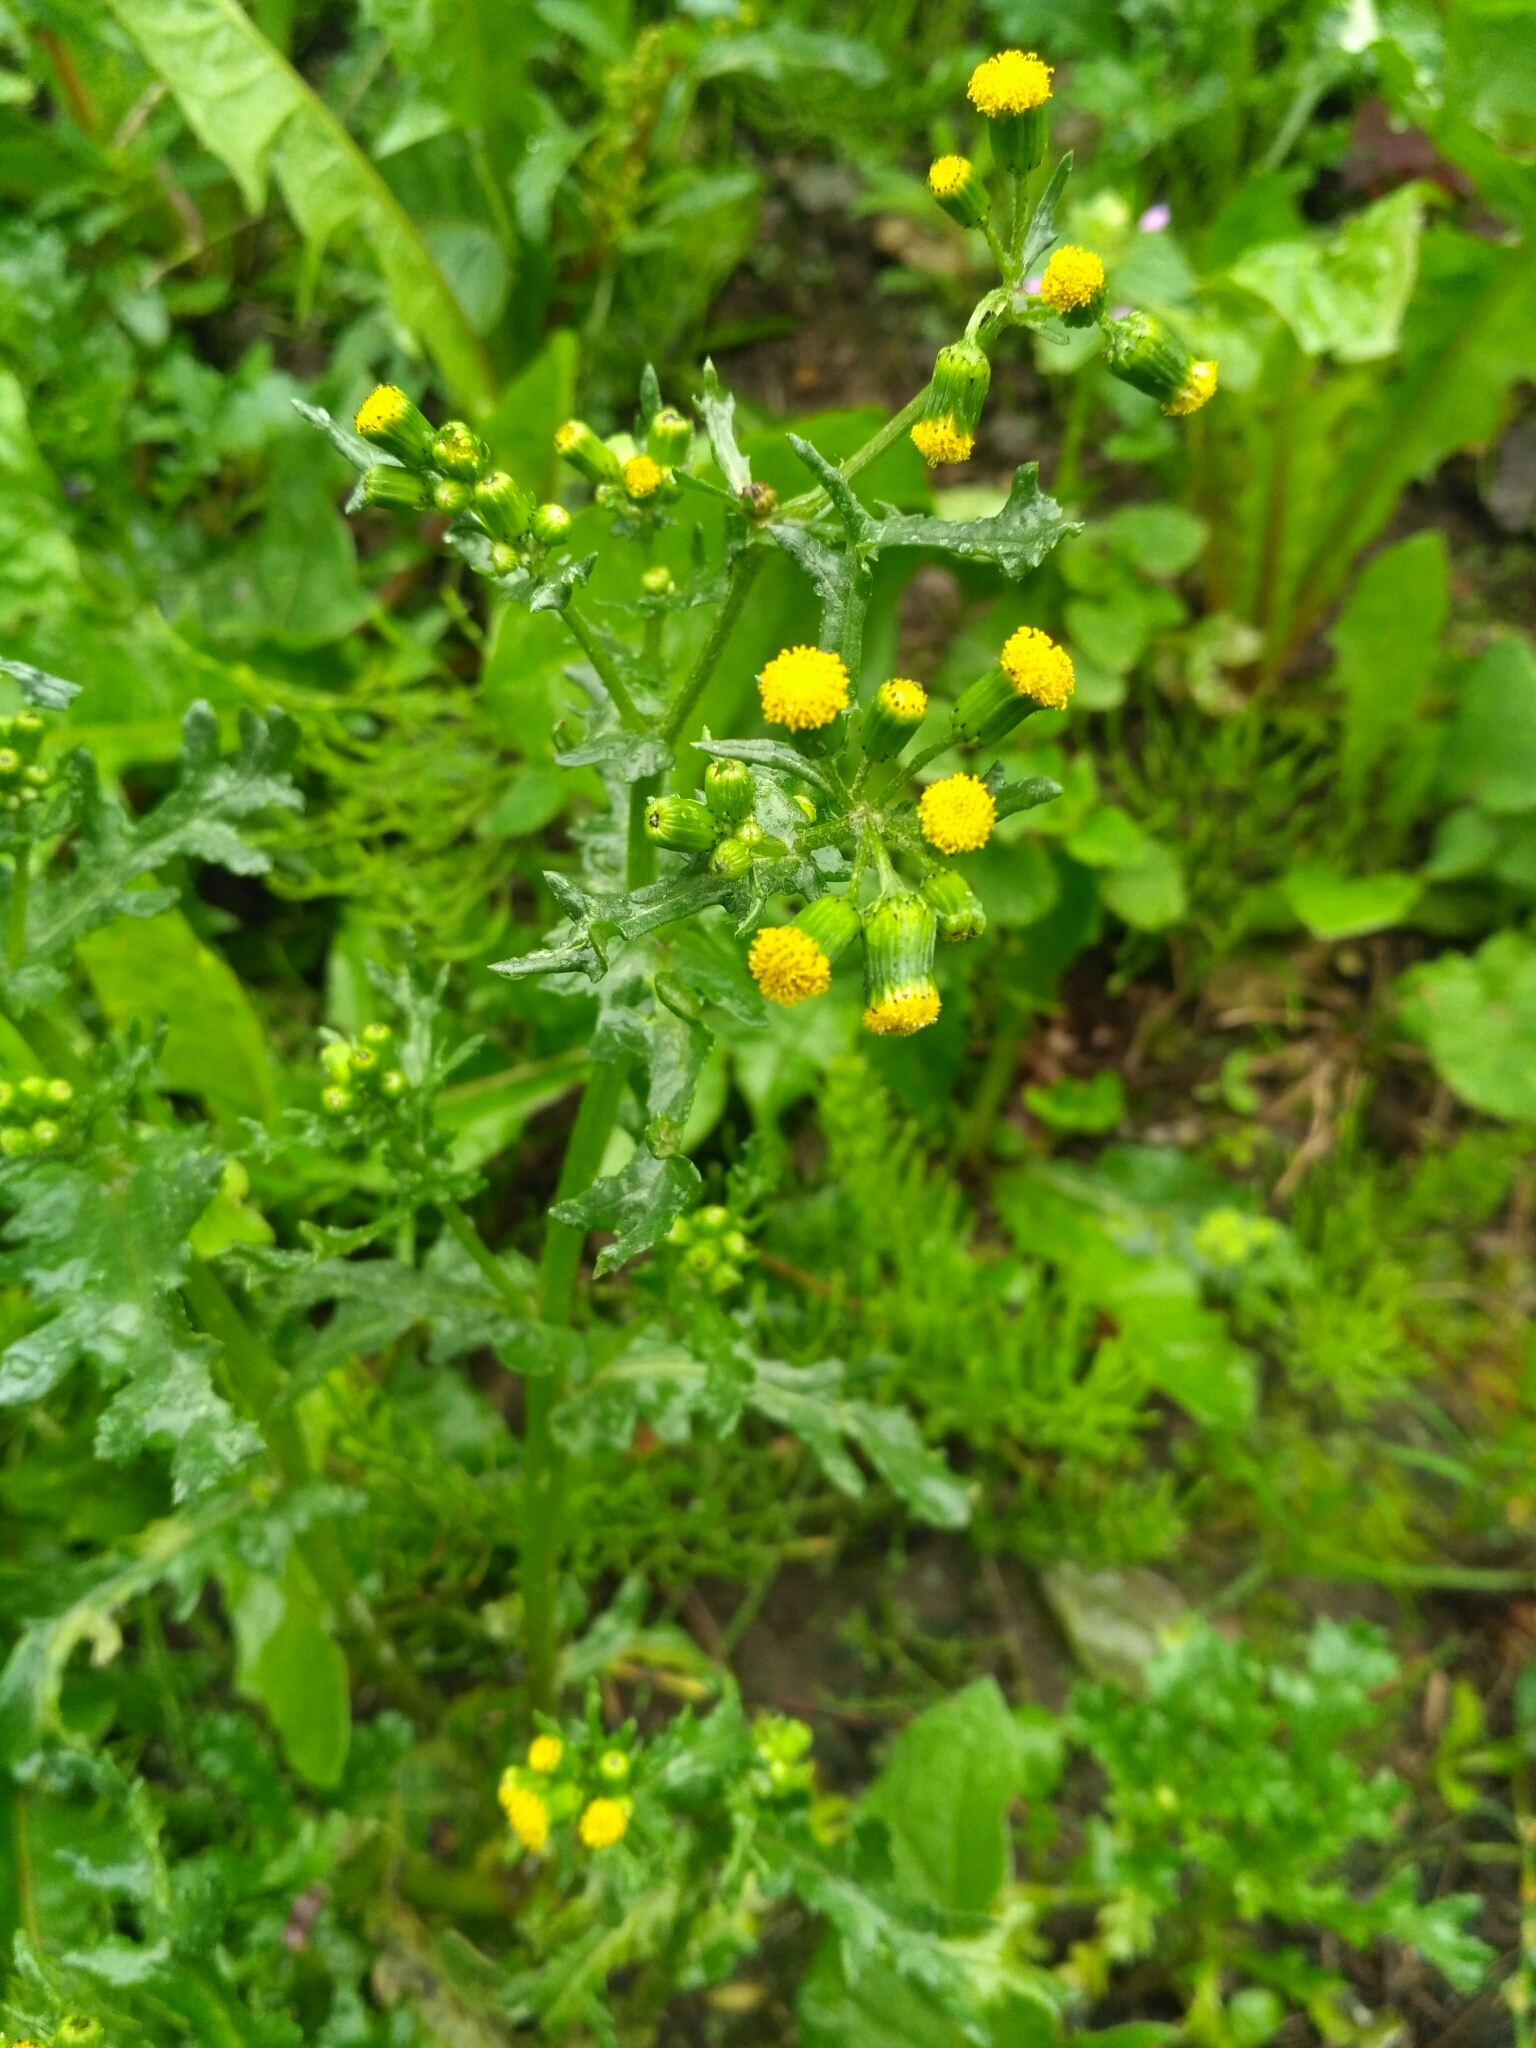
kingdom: Plantae
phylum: Tracheophyta
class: Magnoliopsida
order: Asterales
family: Asteraceae
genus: Senecio
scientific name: Senecio vulgaris
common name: Old-man-in-the-spring
